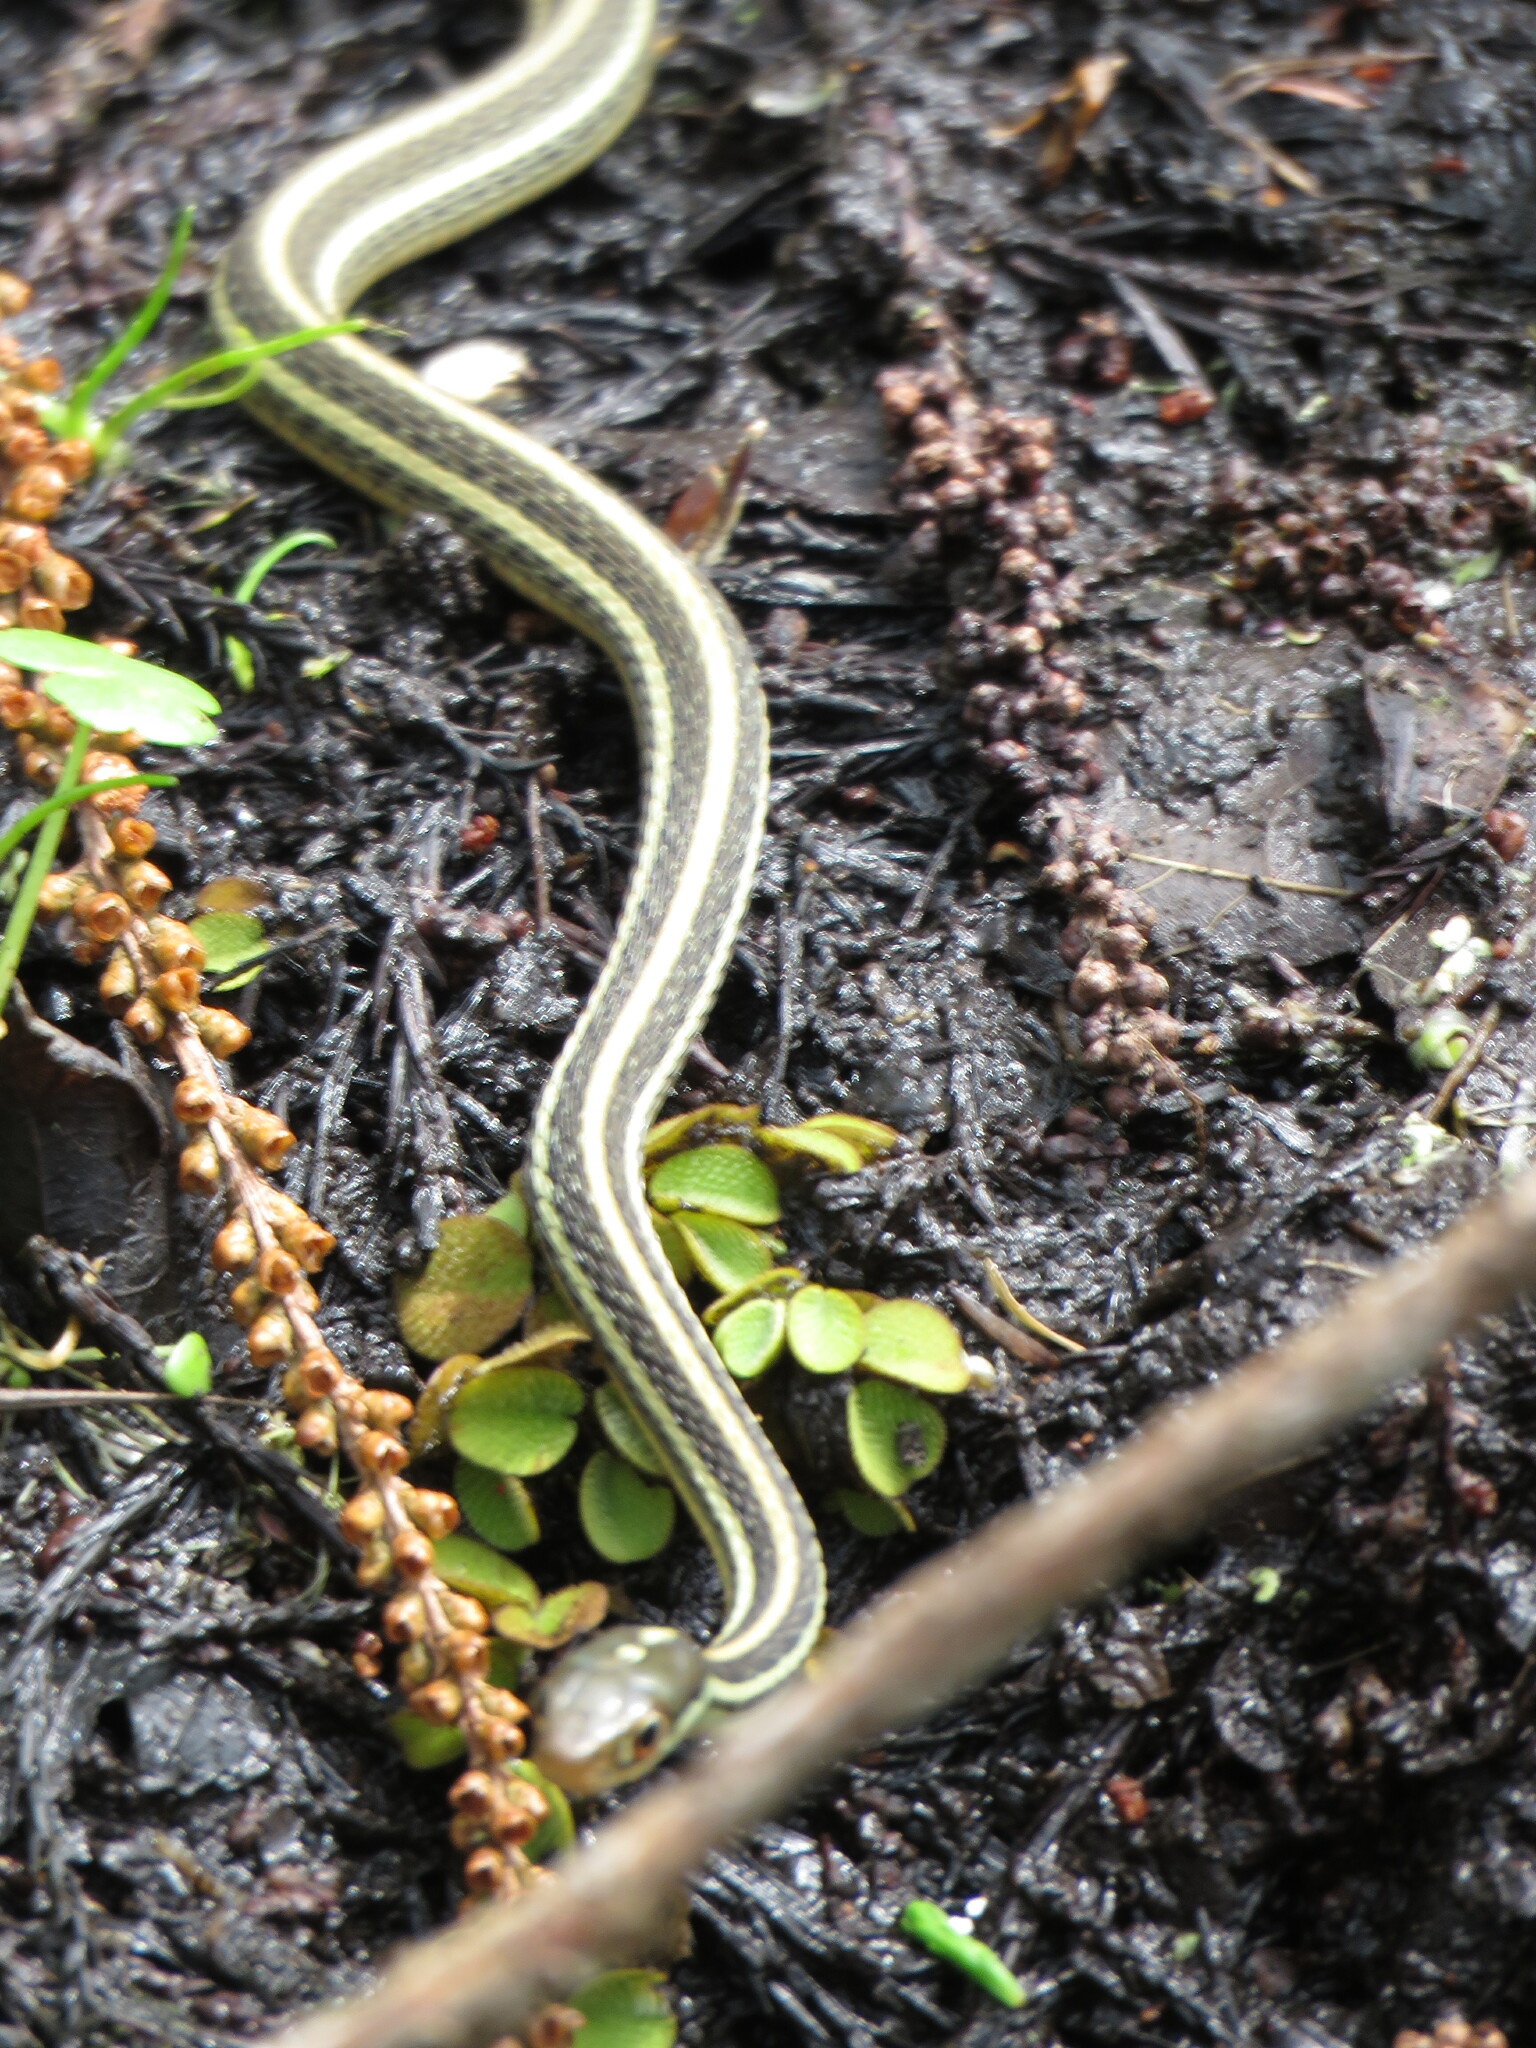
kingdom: Animalia
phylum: Chordata
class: Squamata
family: Colubridae
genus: Thamnophis
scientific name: Thamnophis proximus
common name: Western ribbon snake
